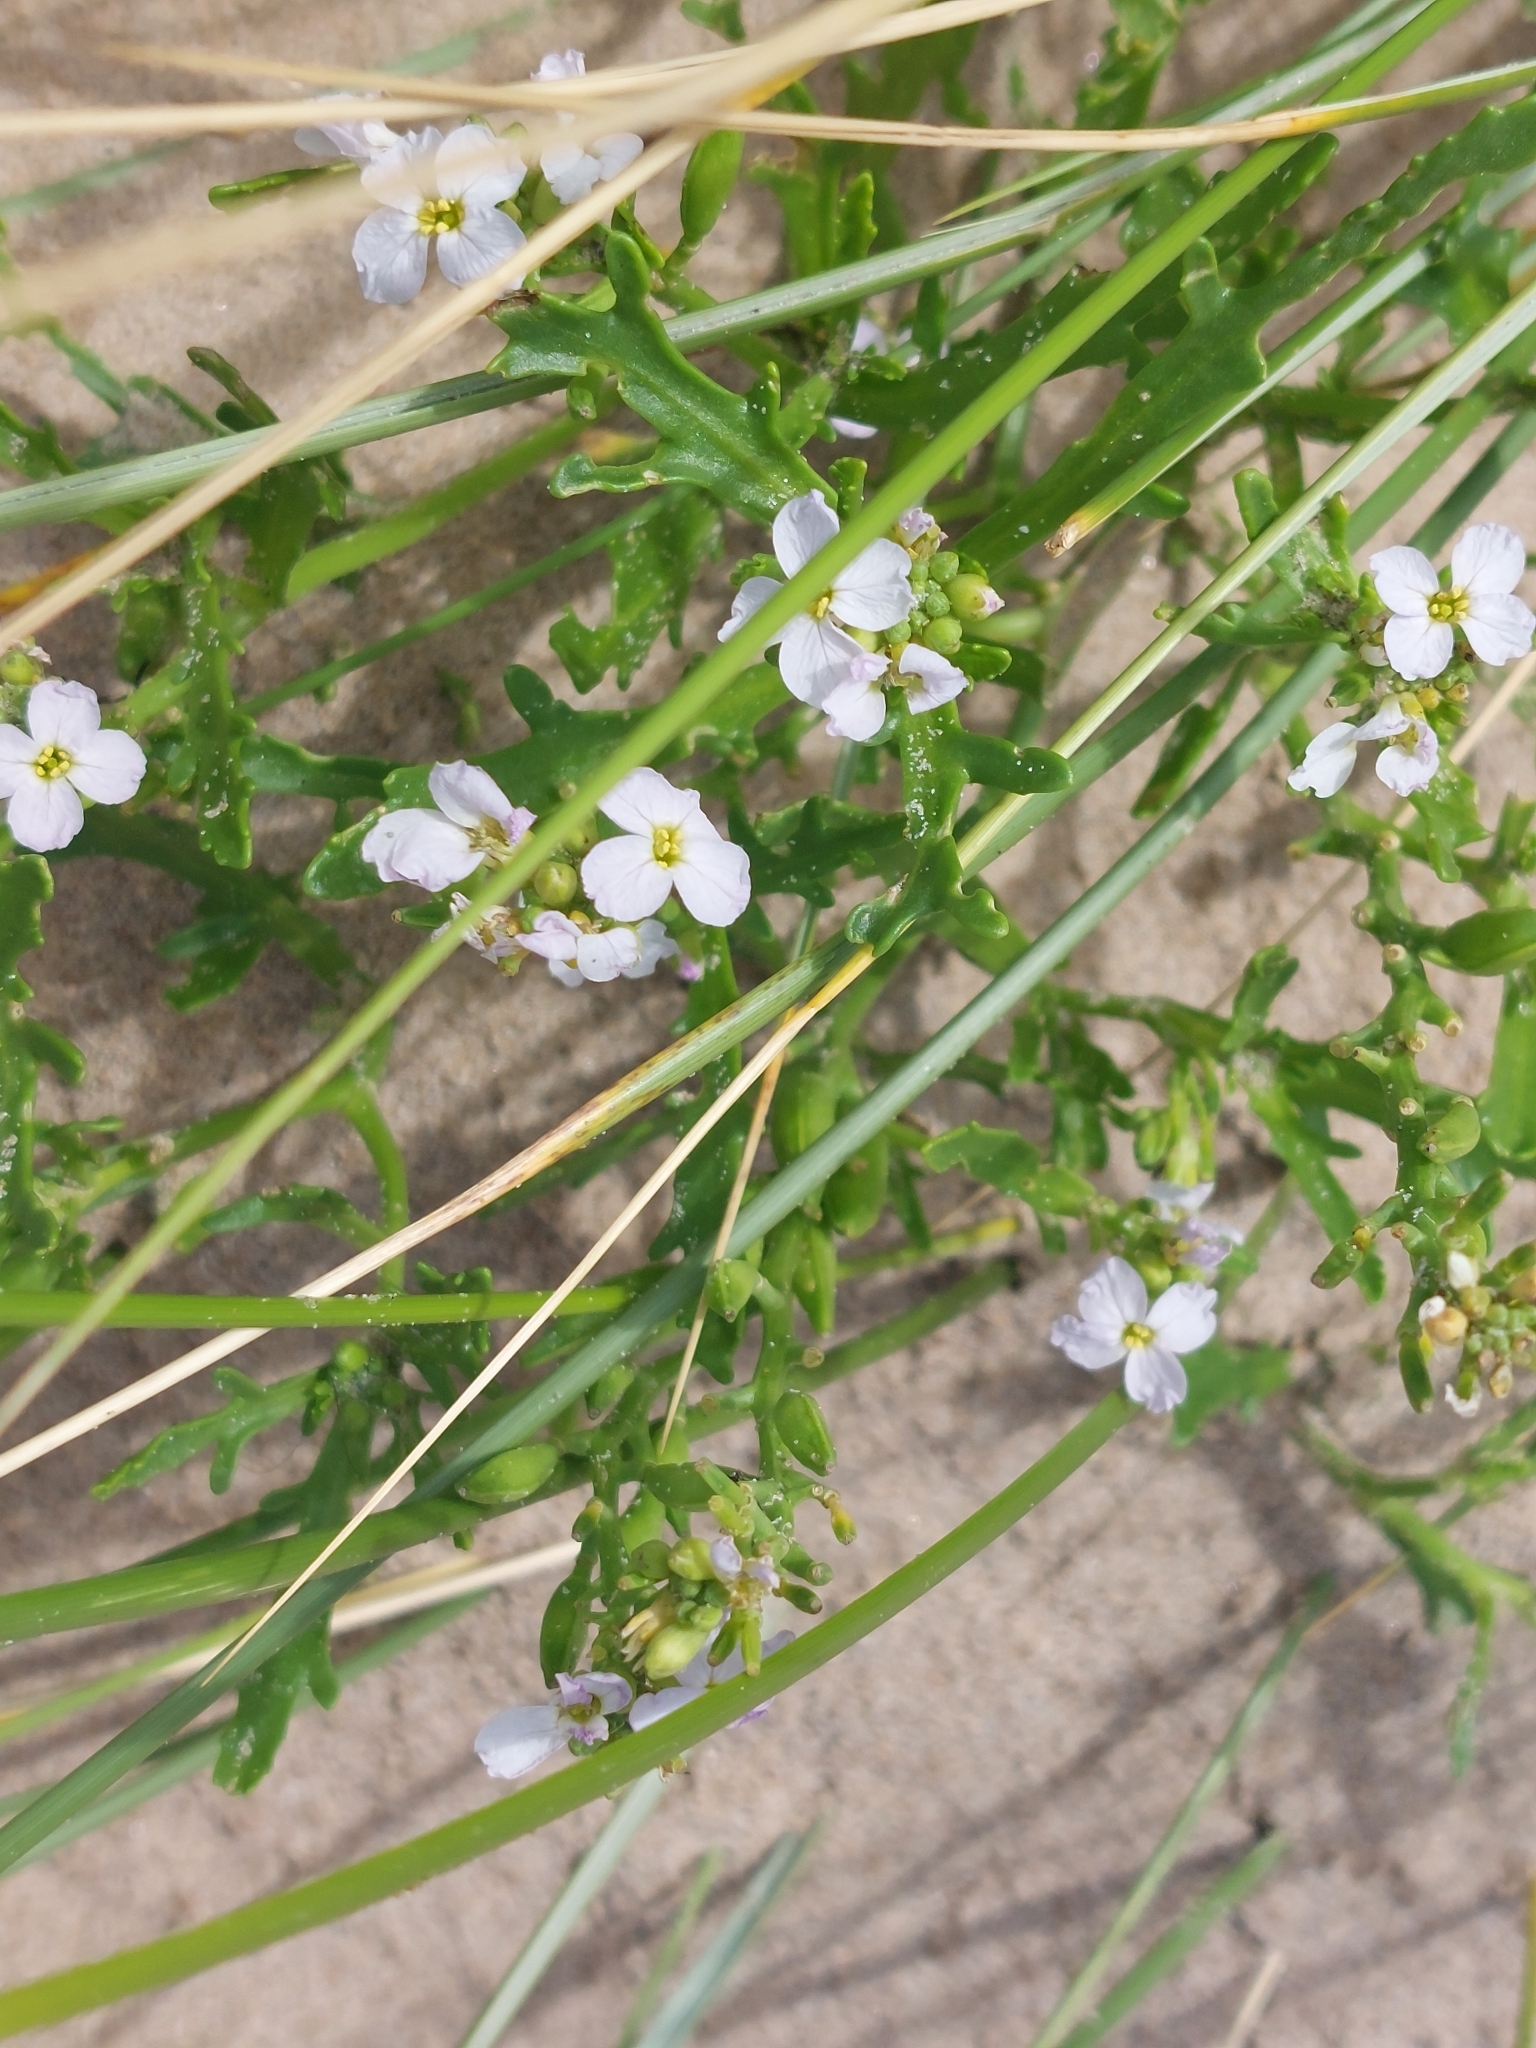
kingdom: Plantae
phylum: Tracheophyta
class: Magnoliopsida
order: Brassicales
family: Brassicaceae
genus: Cakile
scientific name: Cakile maritima
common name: Sea rocket
